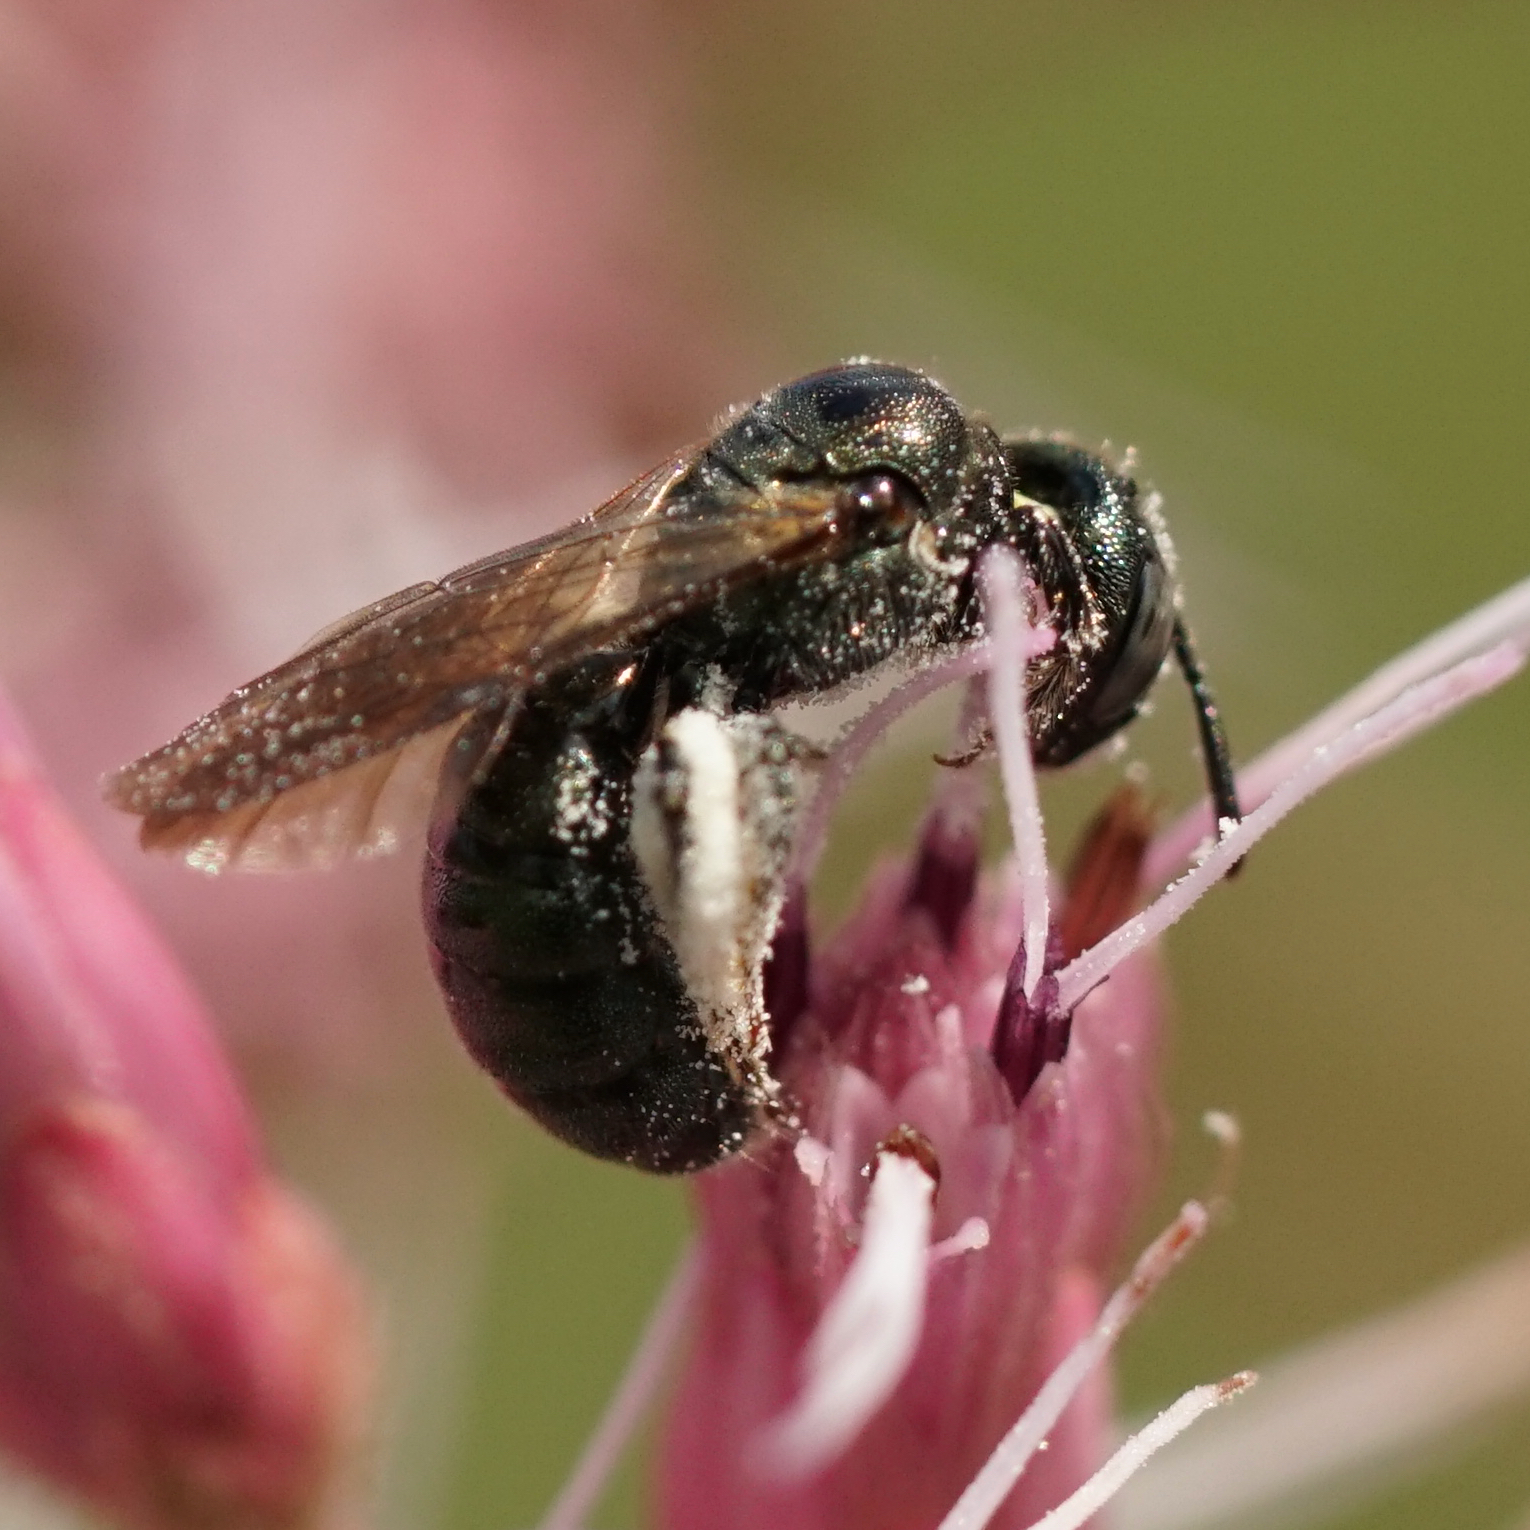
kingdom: Animalia
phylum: Arthropoda
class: Insecta
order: Hymenoptera
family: Apidae
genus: Zadontomerus
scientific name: Zadontomerus
